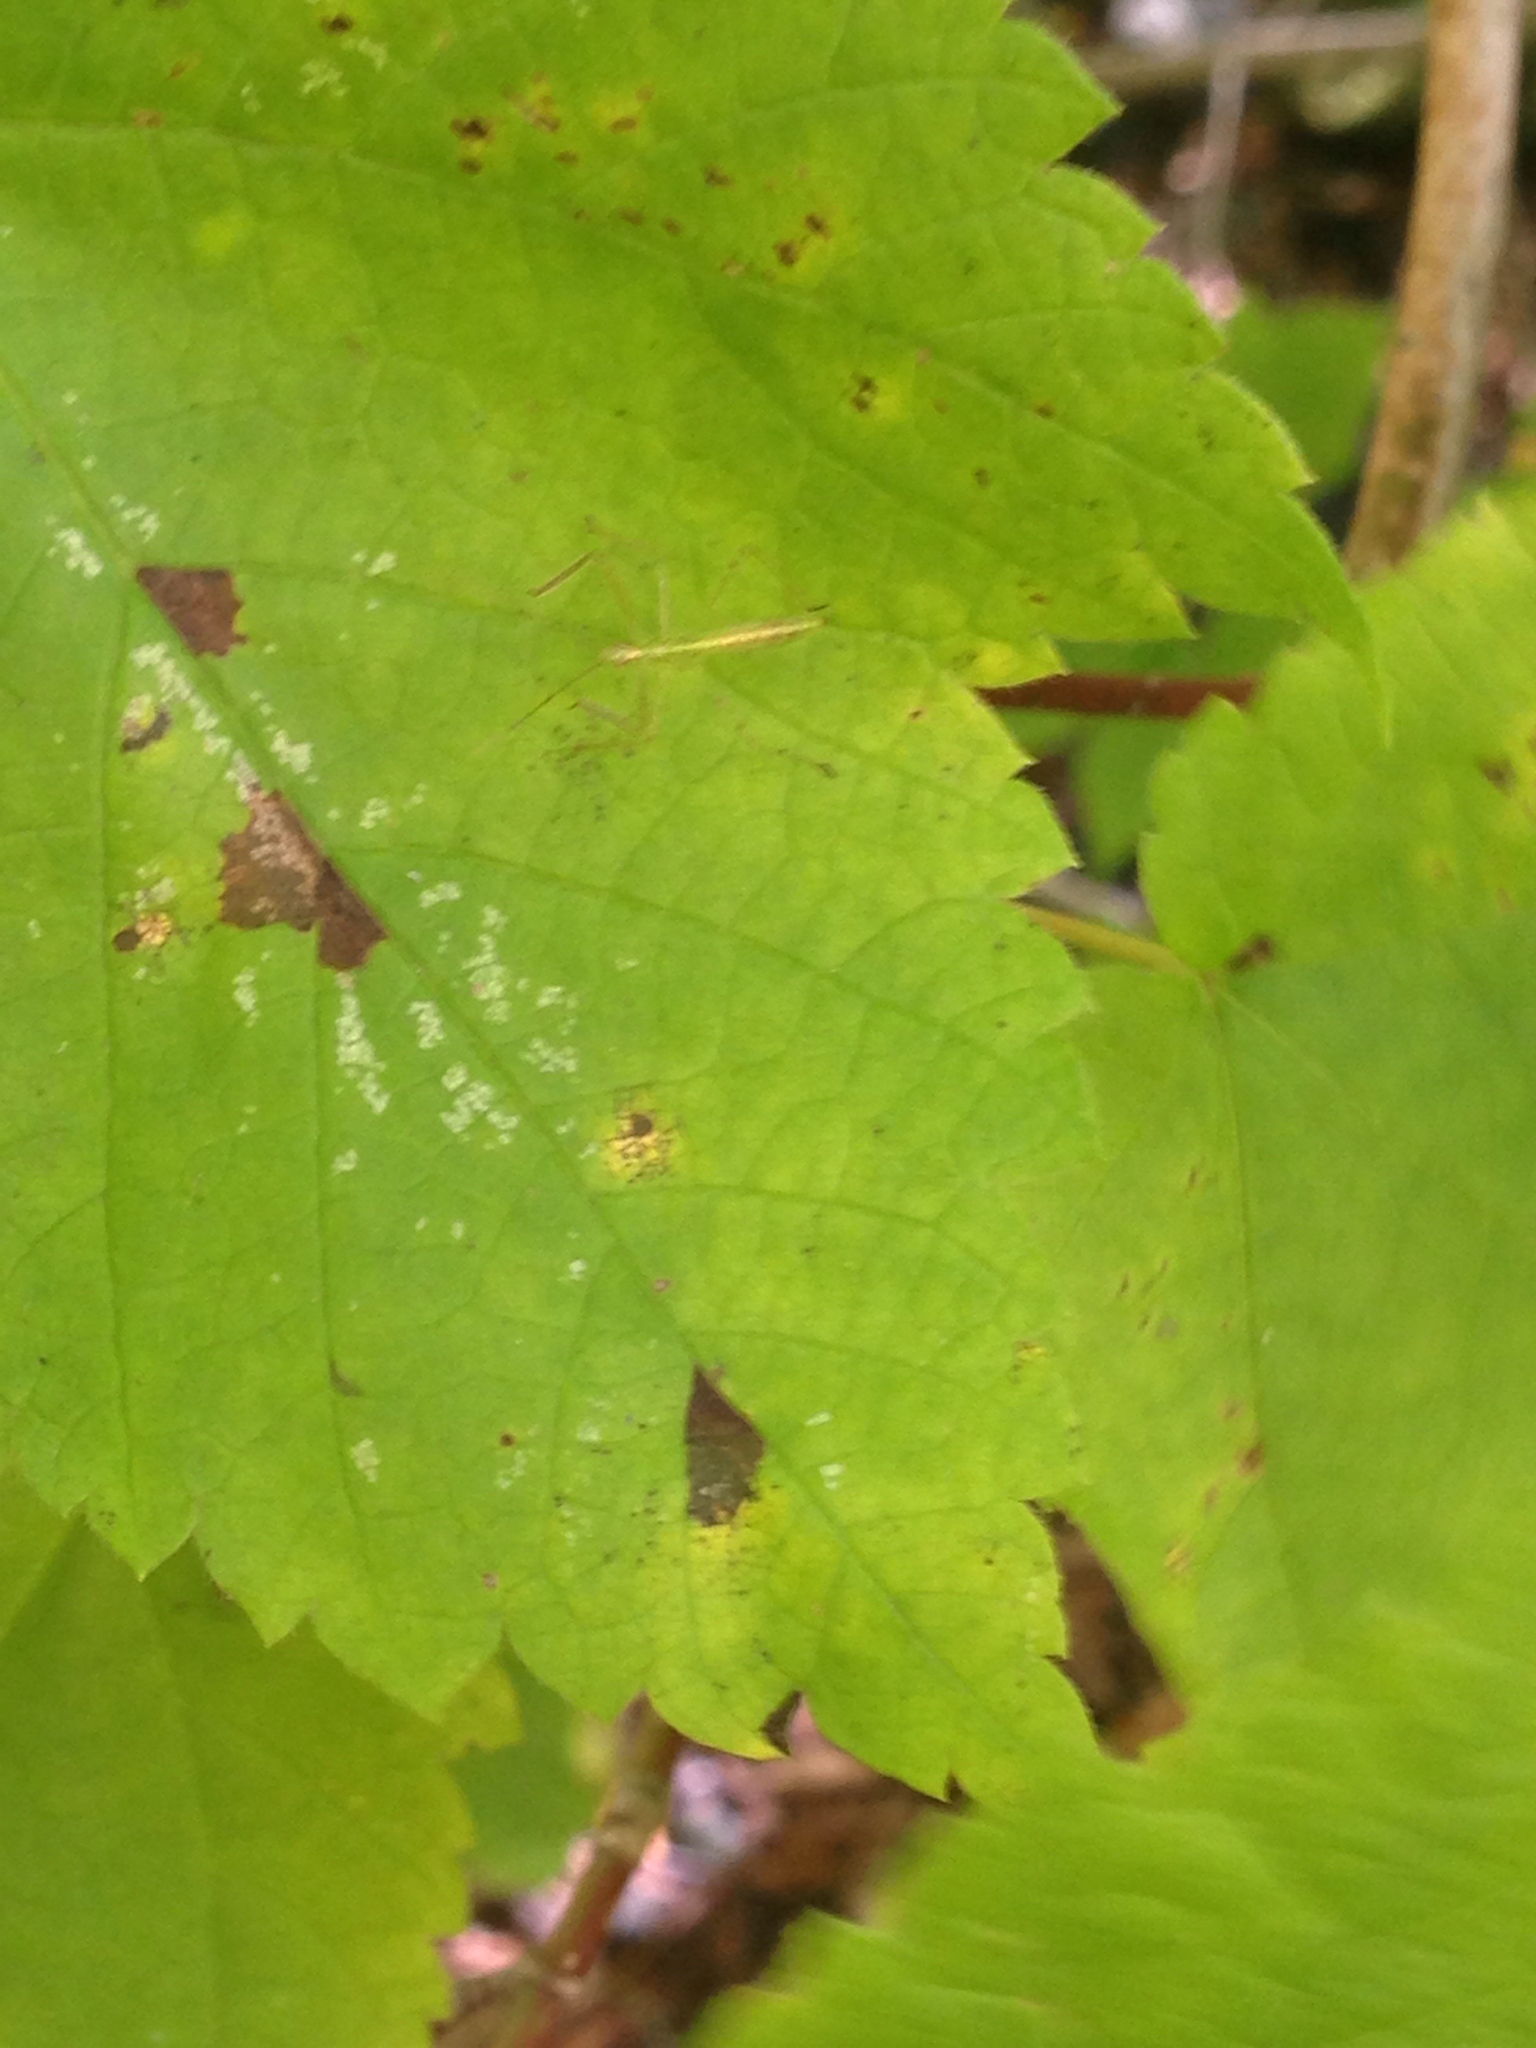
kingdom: Animalia
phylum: Arthropoda
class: Insecta
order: Hemiptera
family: Reduviidae
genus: Zelus
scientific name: Zelus luridus
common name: Pale green assassin bug
